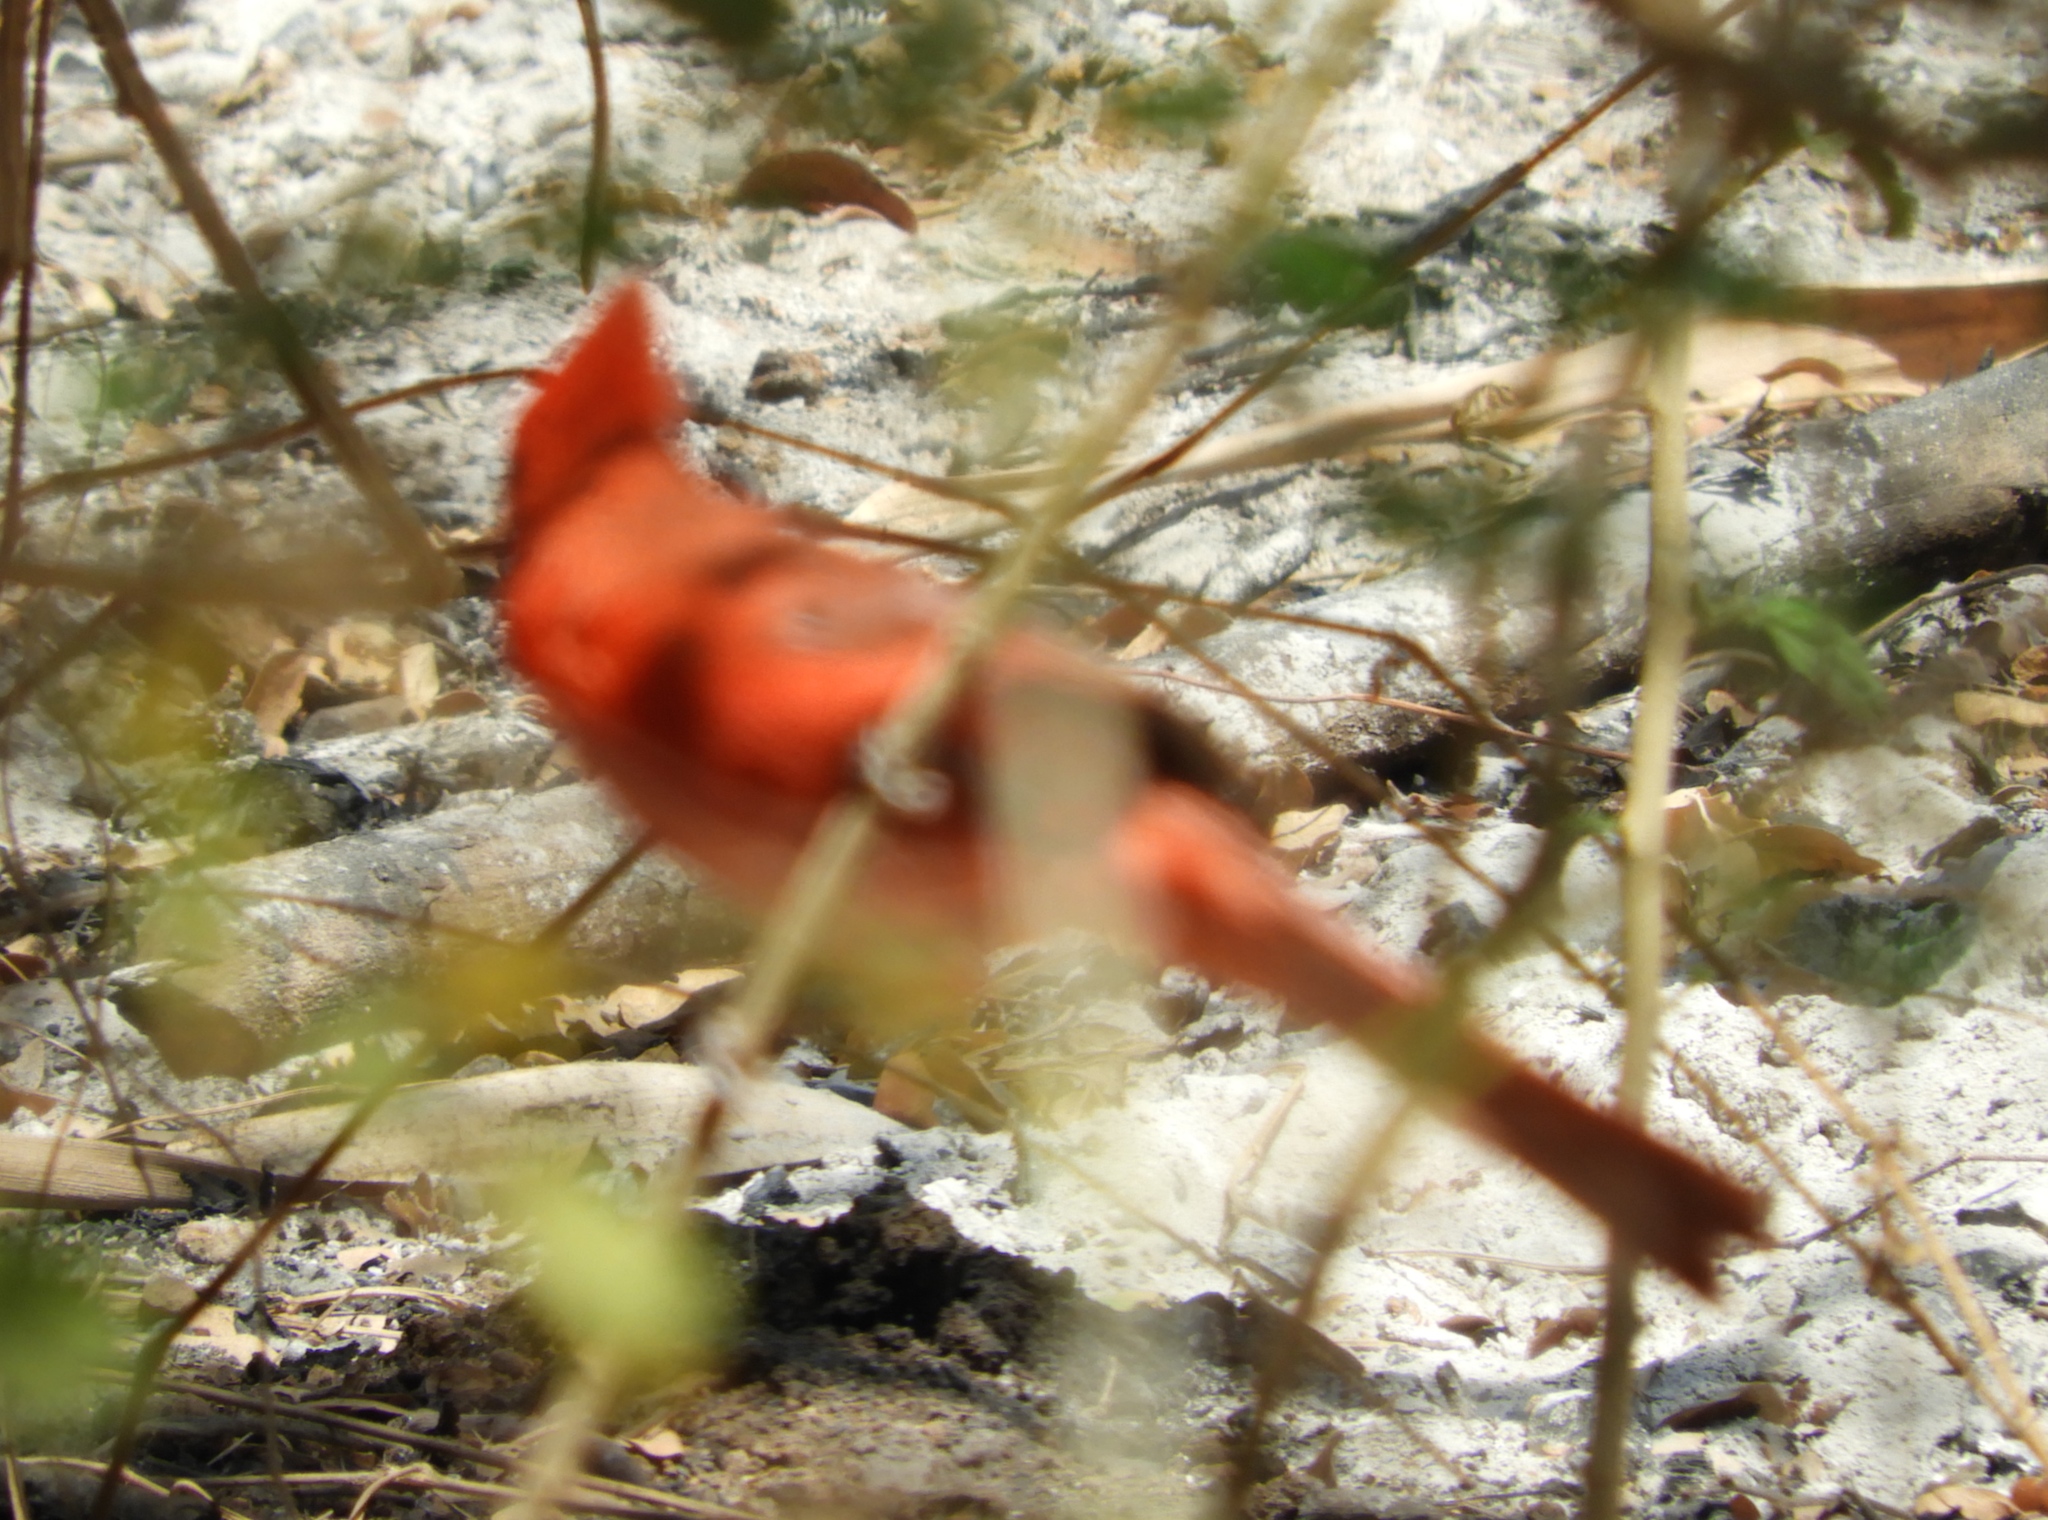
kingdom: Animalia
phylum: Chordata
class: Aves
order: Passeriformes
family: Cardinalidae
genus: Cardinalis
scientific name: Cardinalis cardinalis
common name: Northern cardinal
